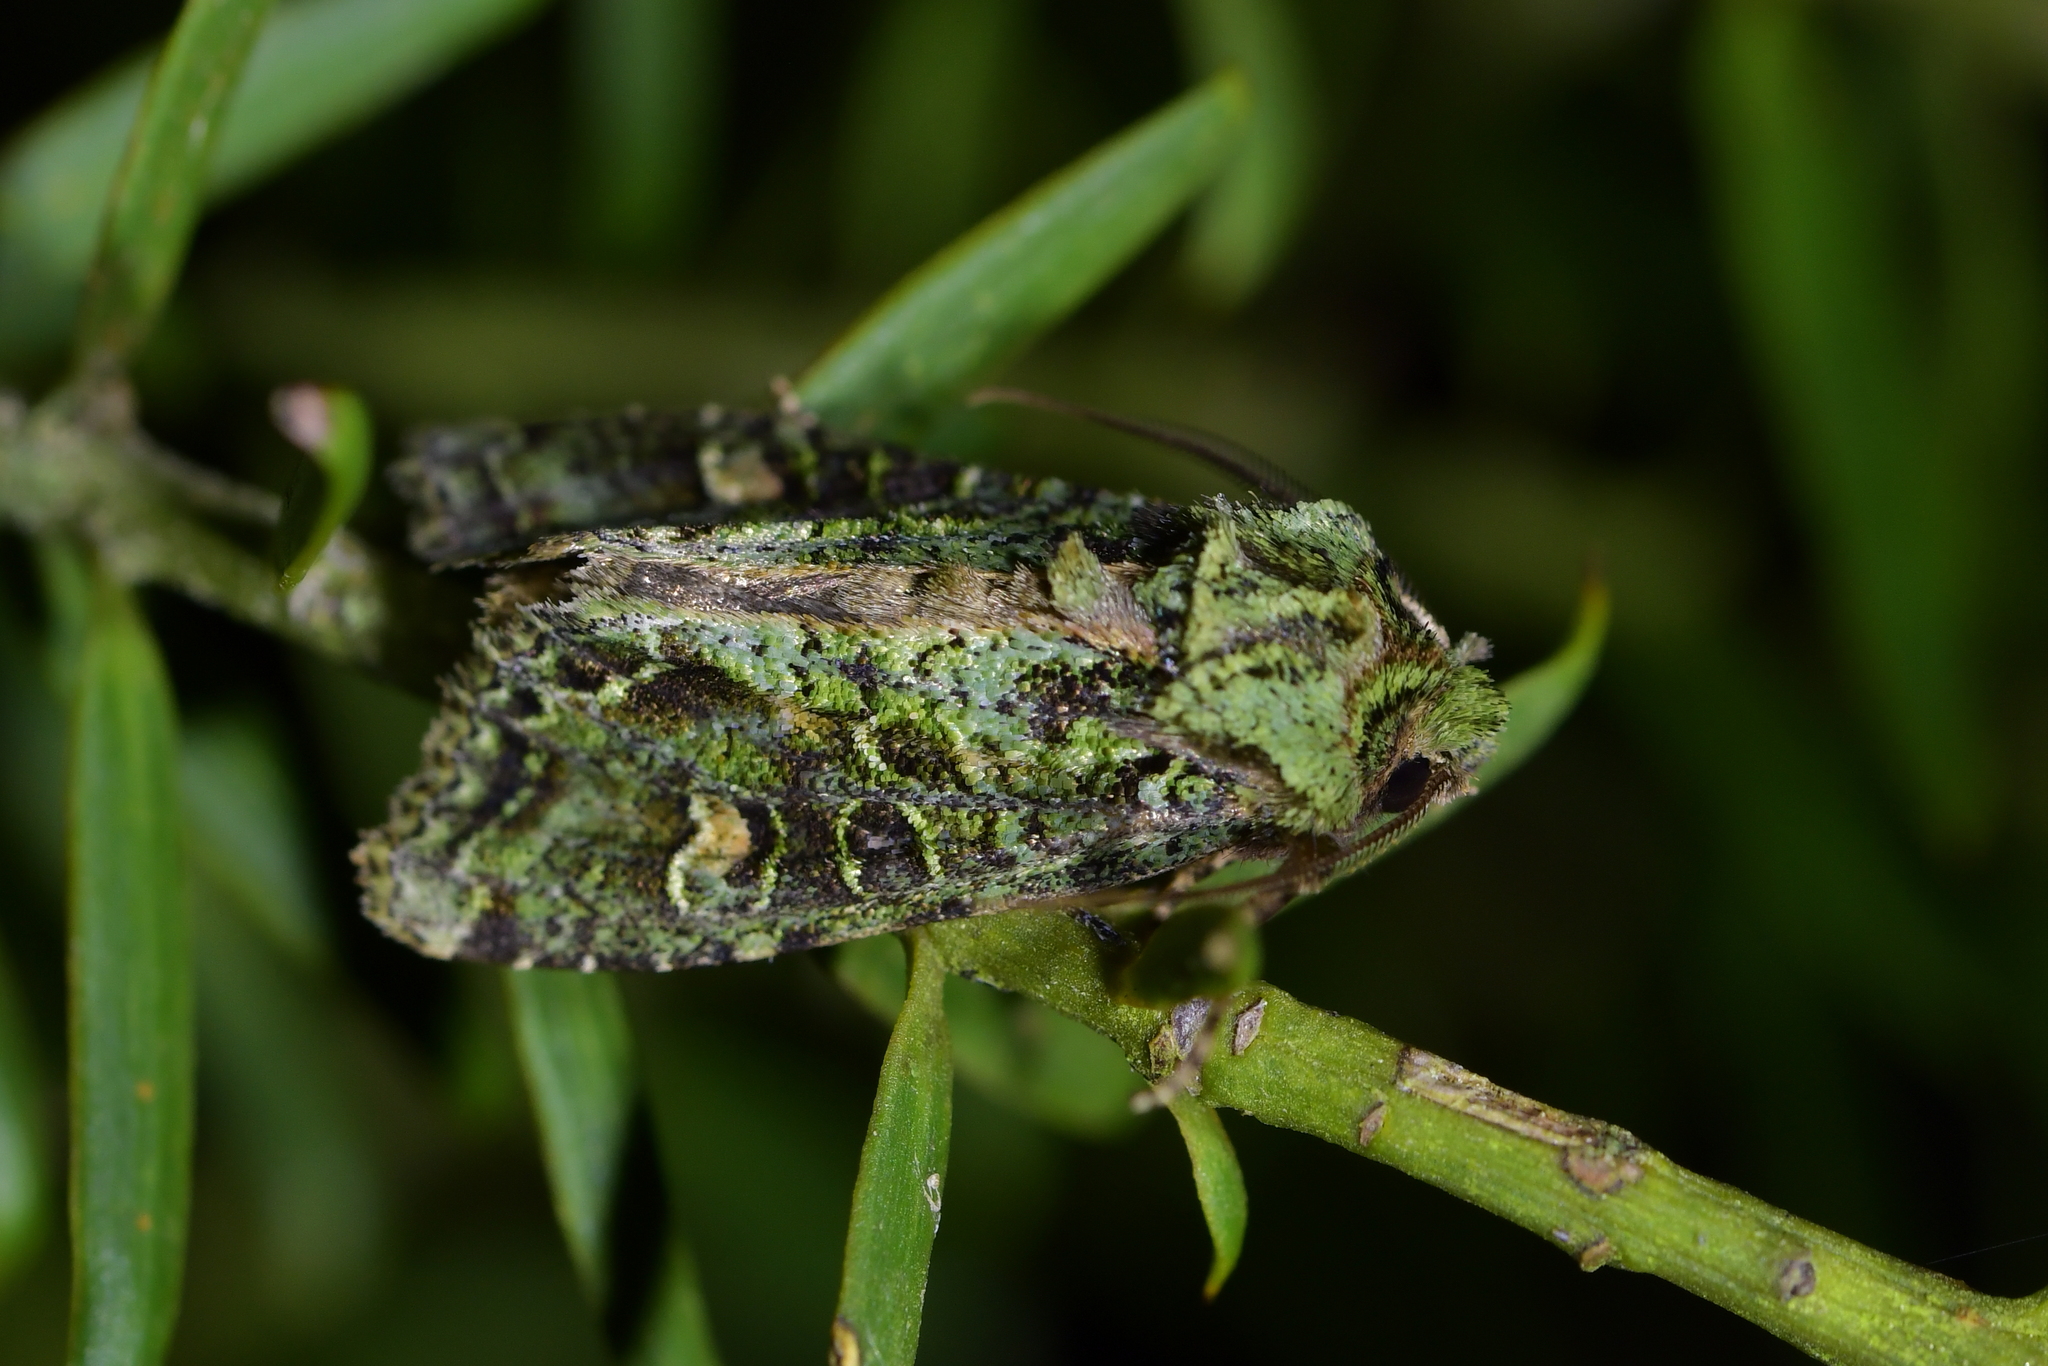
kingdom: Animalia
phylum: Arthropoda
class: Insecta
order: Lepidoptera
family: Noctuidae
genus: Ichneutica
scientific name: Ichneutica
